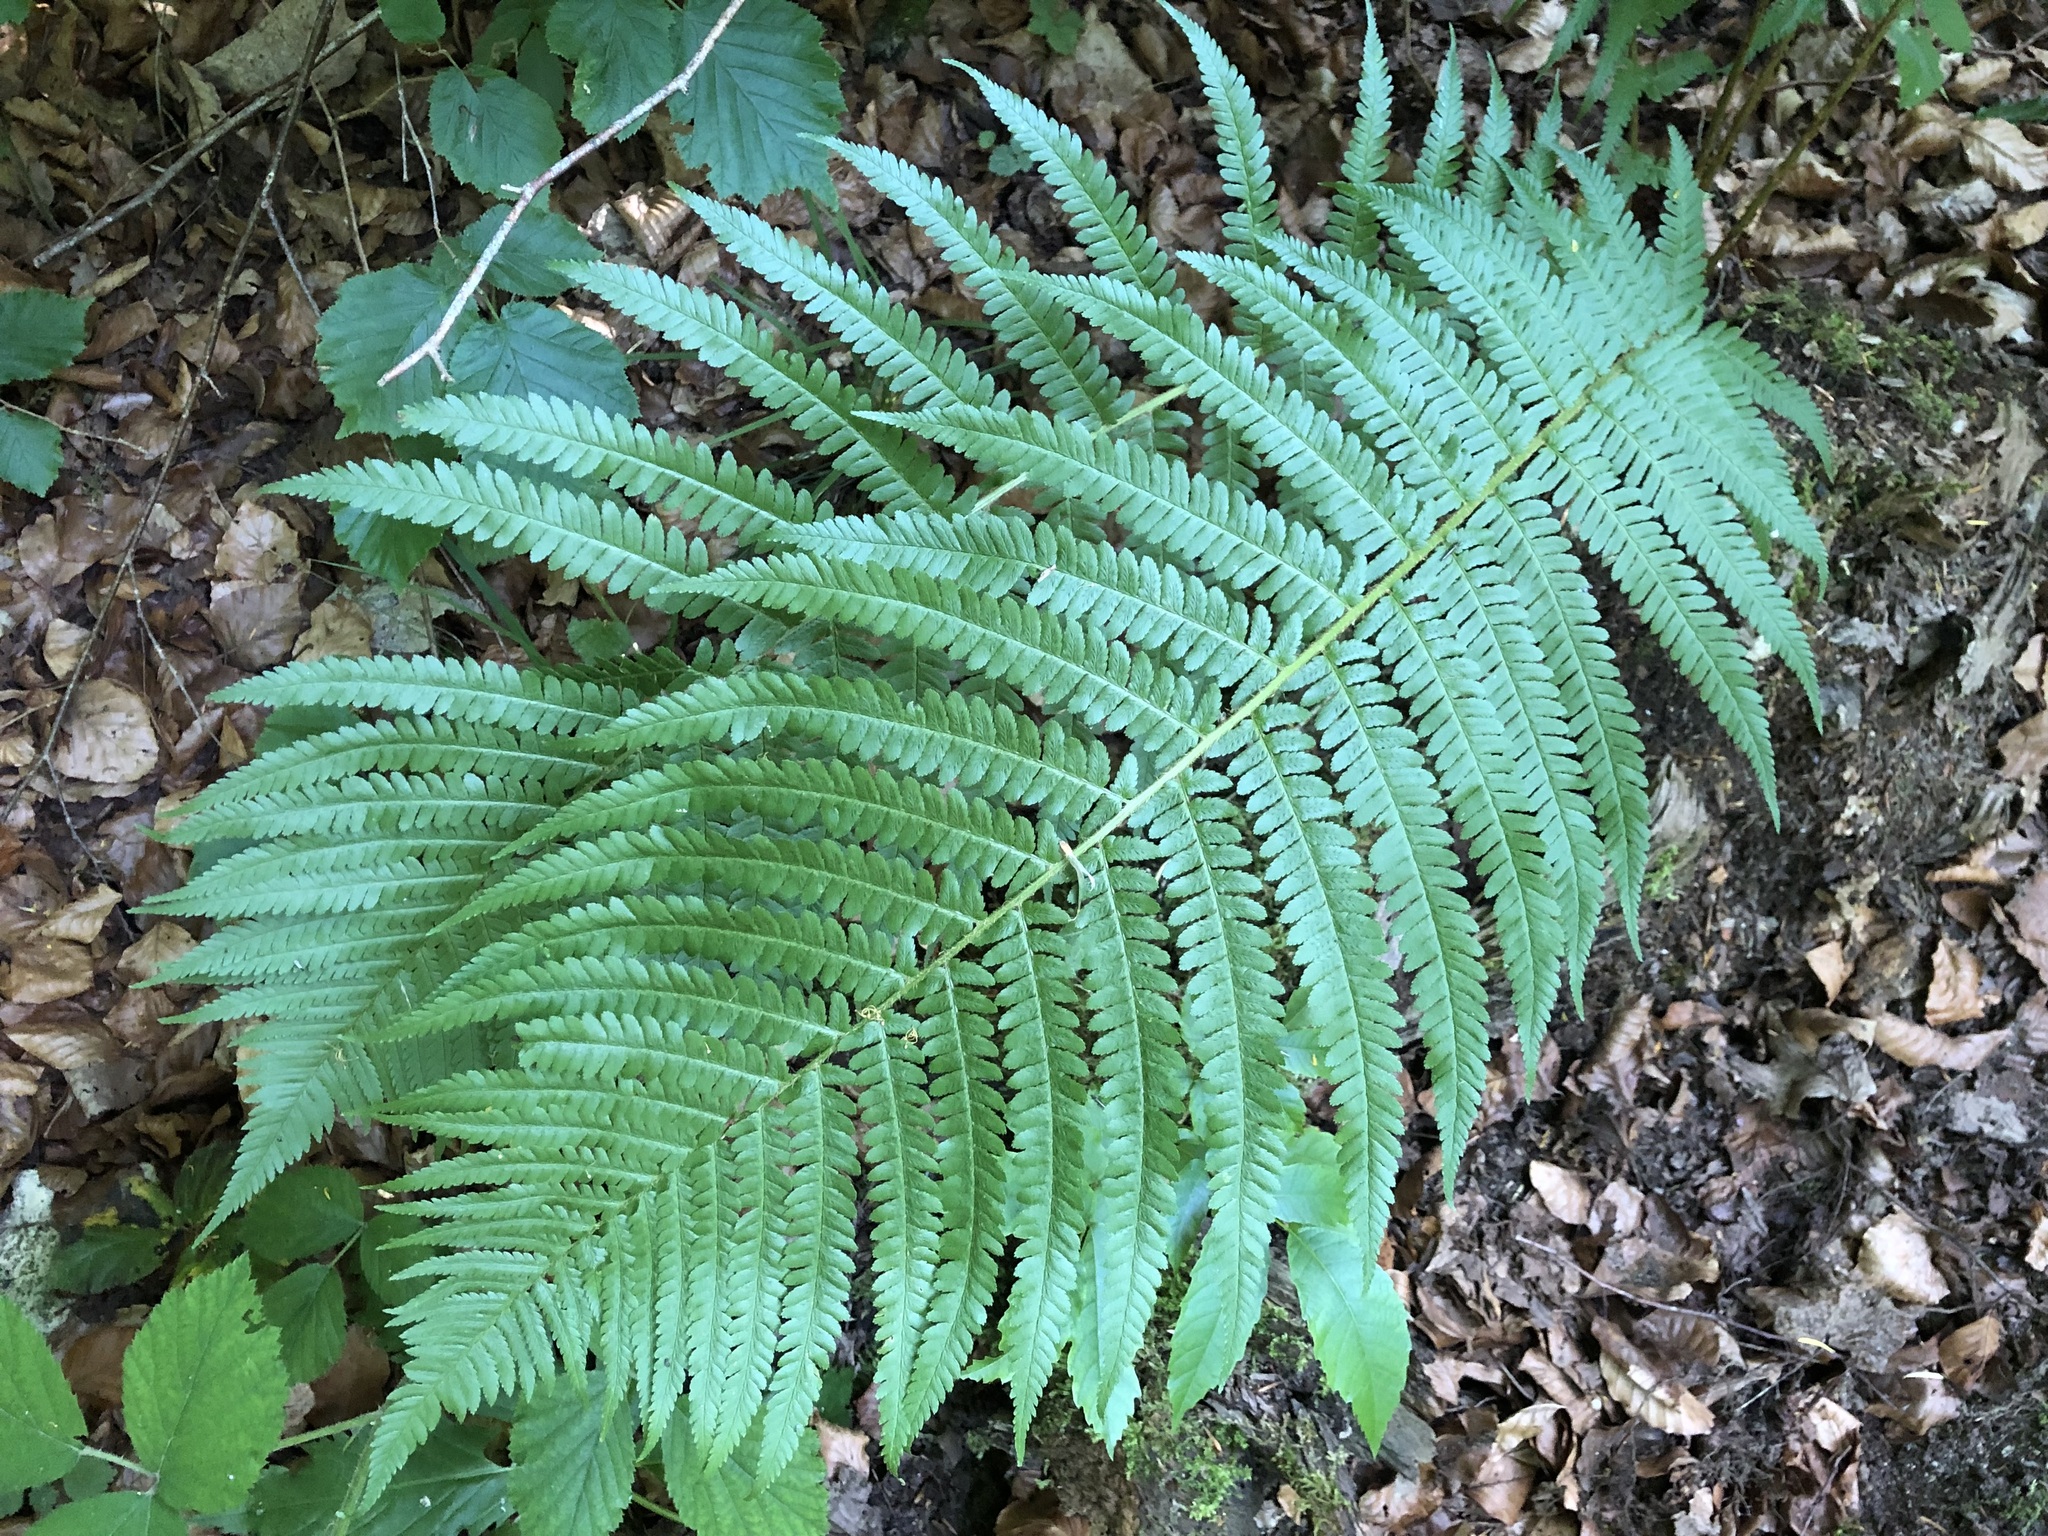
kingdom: Plantae
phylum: Tracheophyta
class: Polypodiopsida
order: Polypodiales
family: Dryopteridaceae
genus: Dryopteris
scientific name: Dryopteris filix-mas
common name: Male fern
